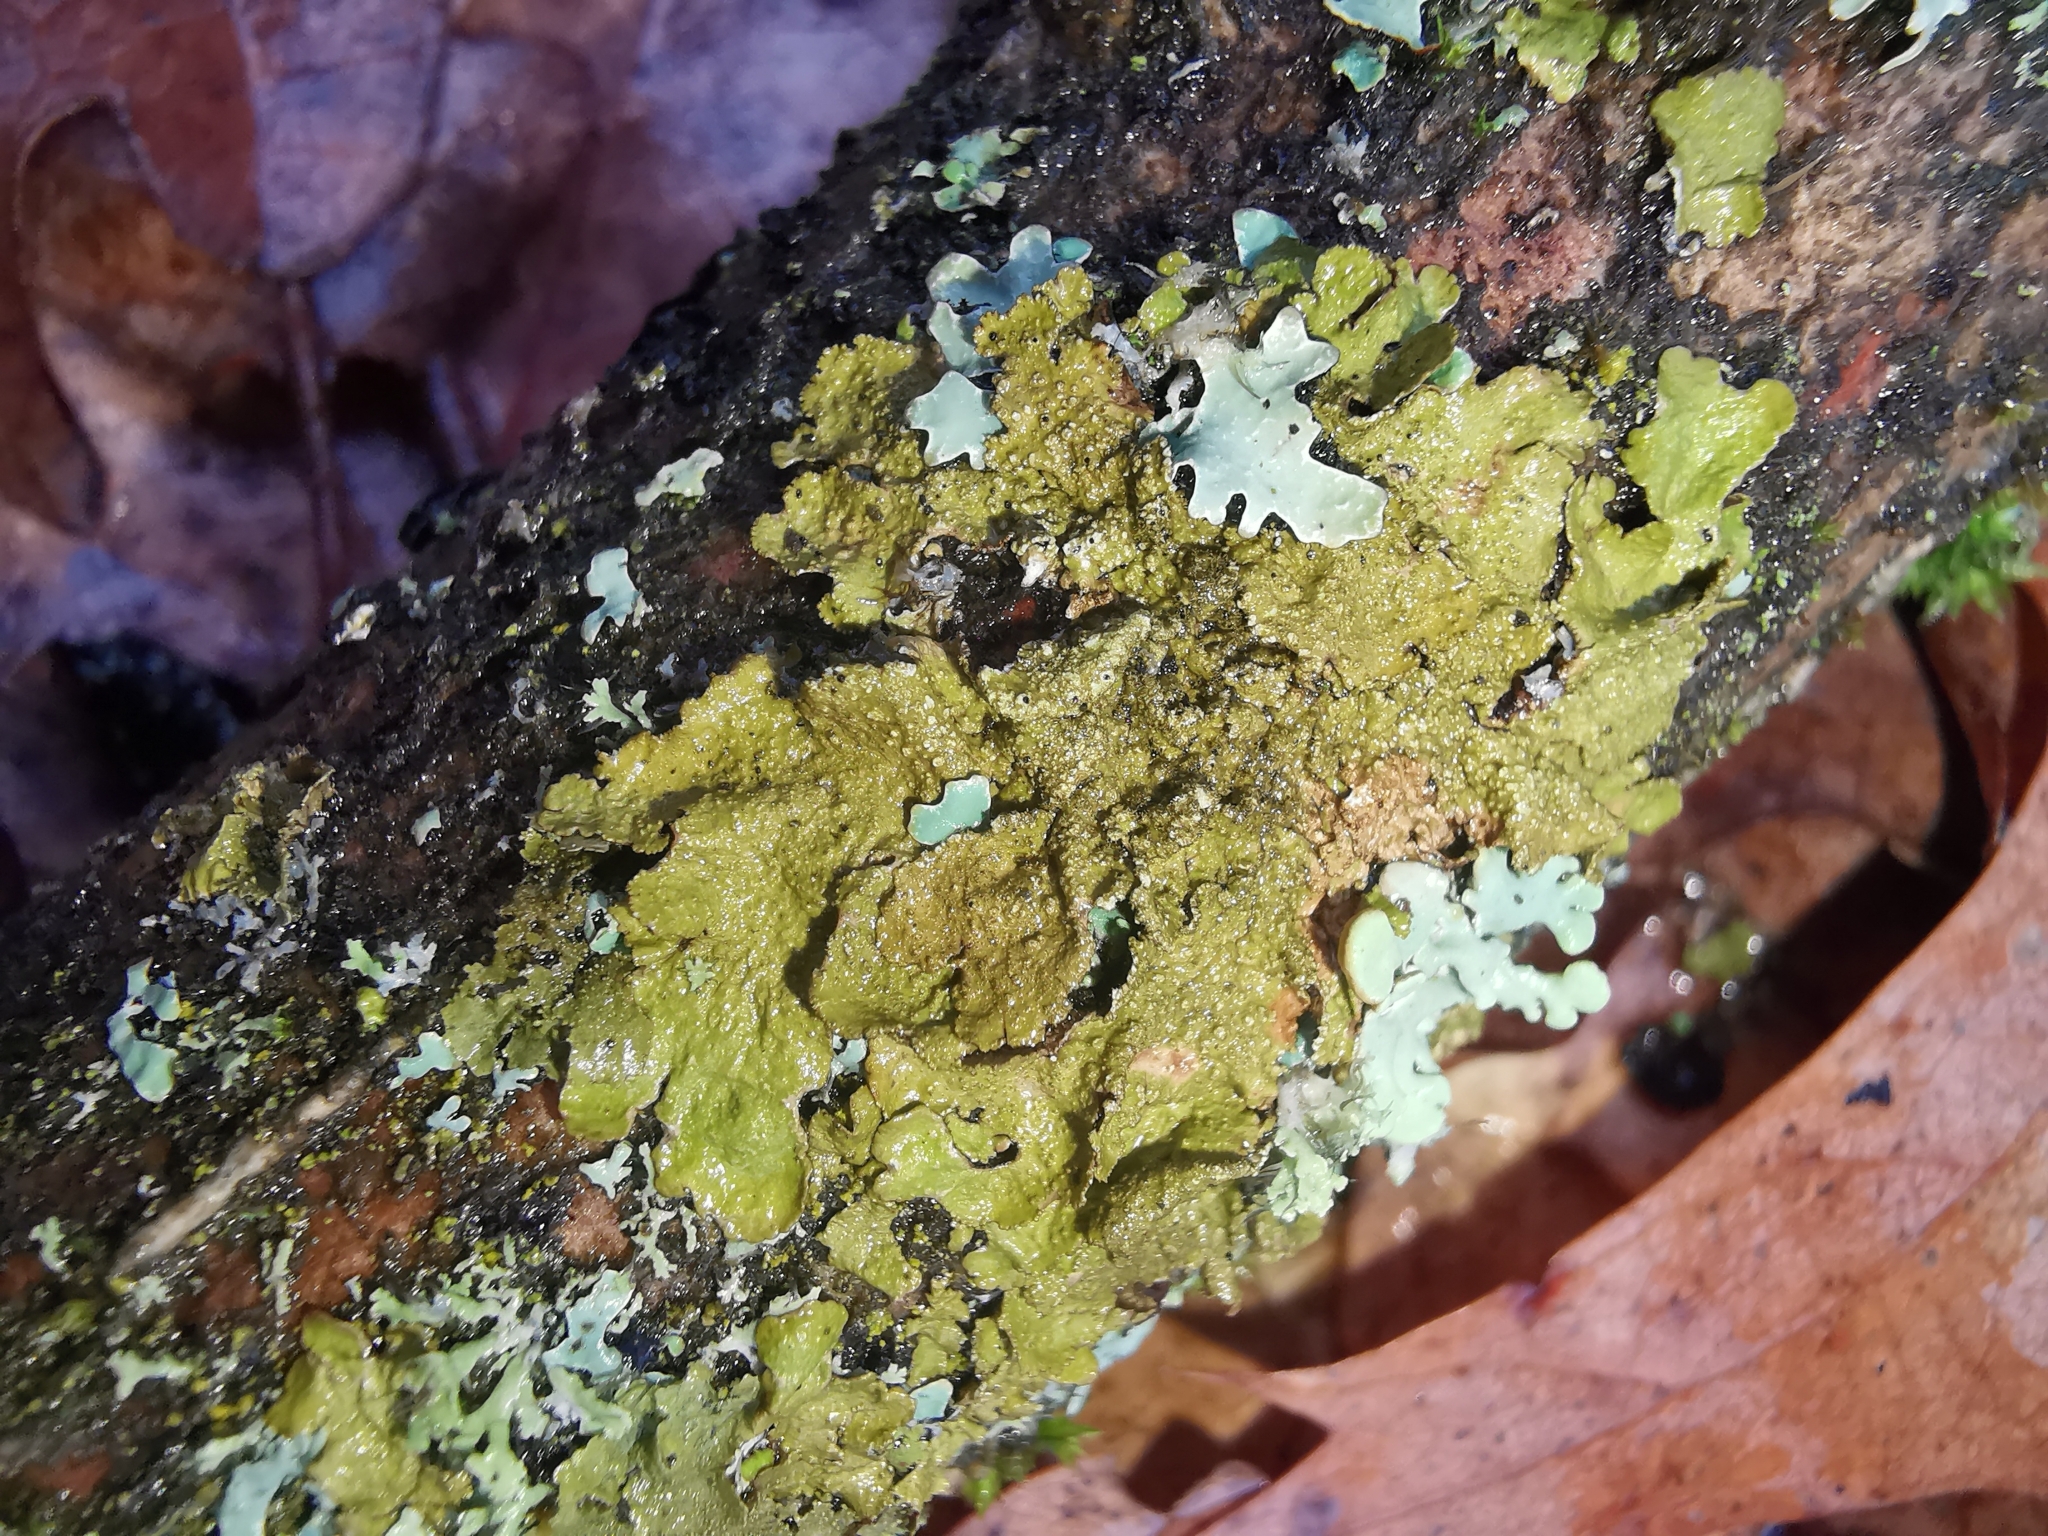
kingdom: Fungi
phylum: Ascomycota
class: Lecanoromycetes
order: Lecanorales
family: Parmeliaceae
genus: Melanelixia
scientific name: Melanelixia subaurifera
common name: Abraded camouflage lichen
